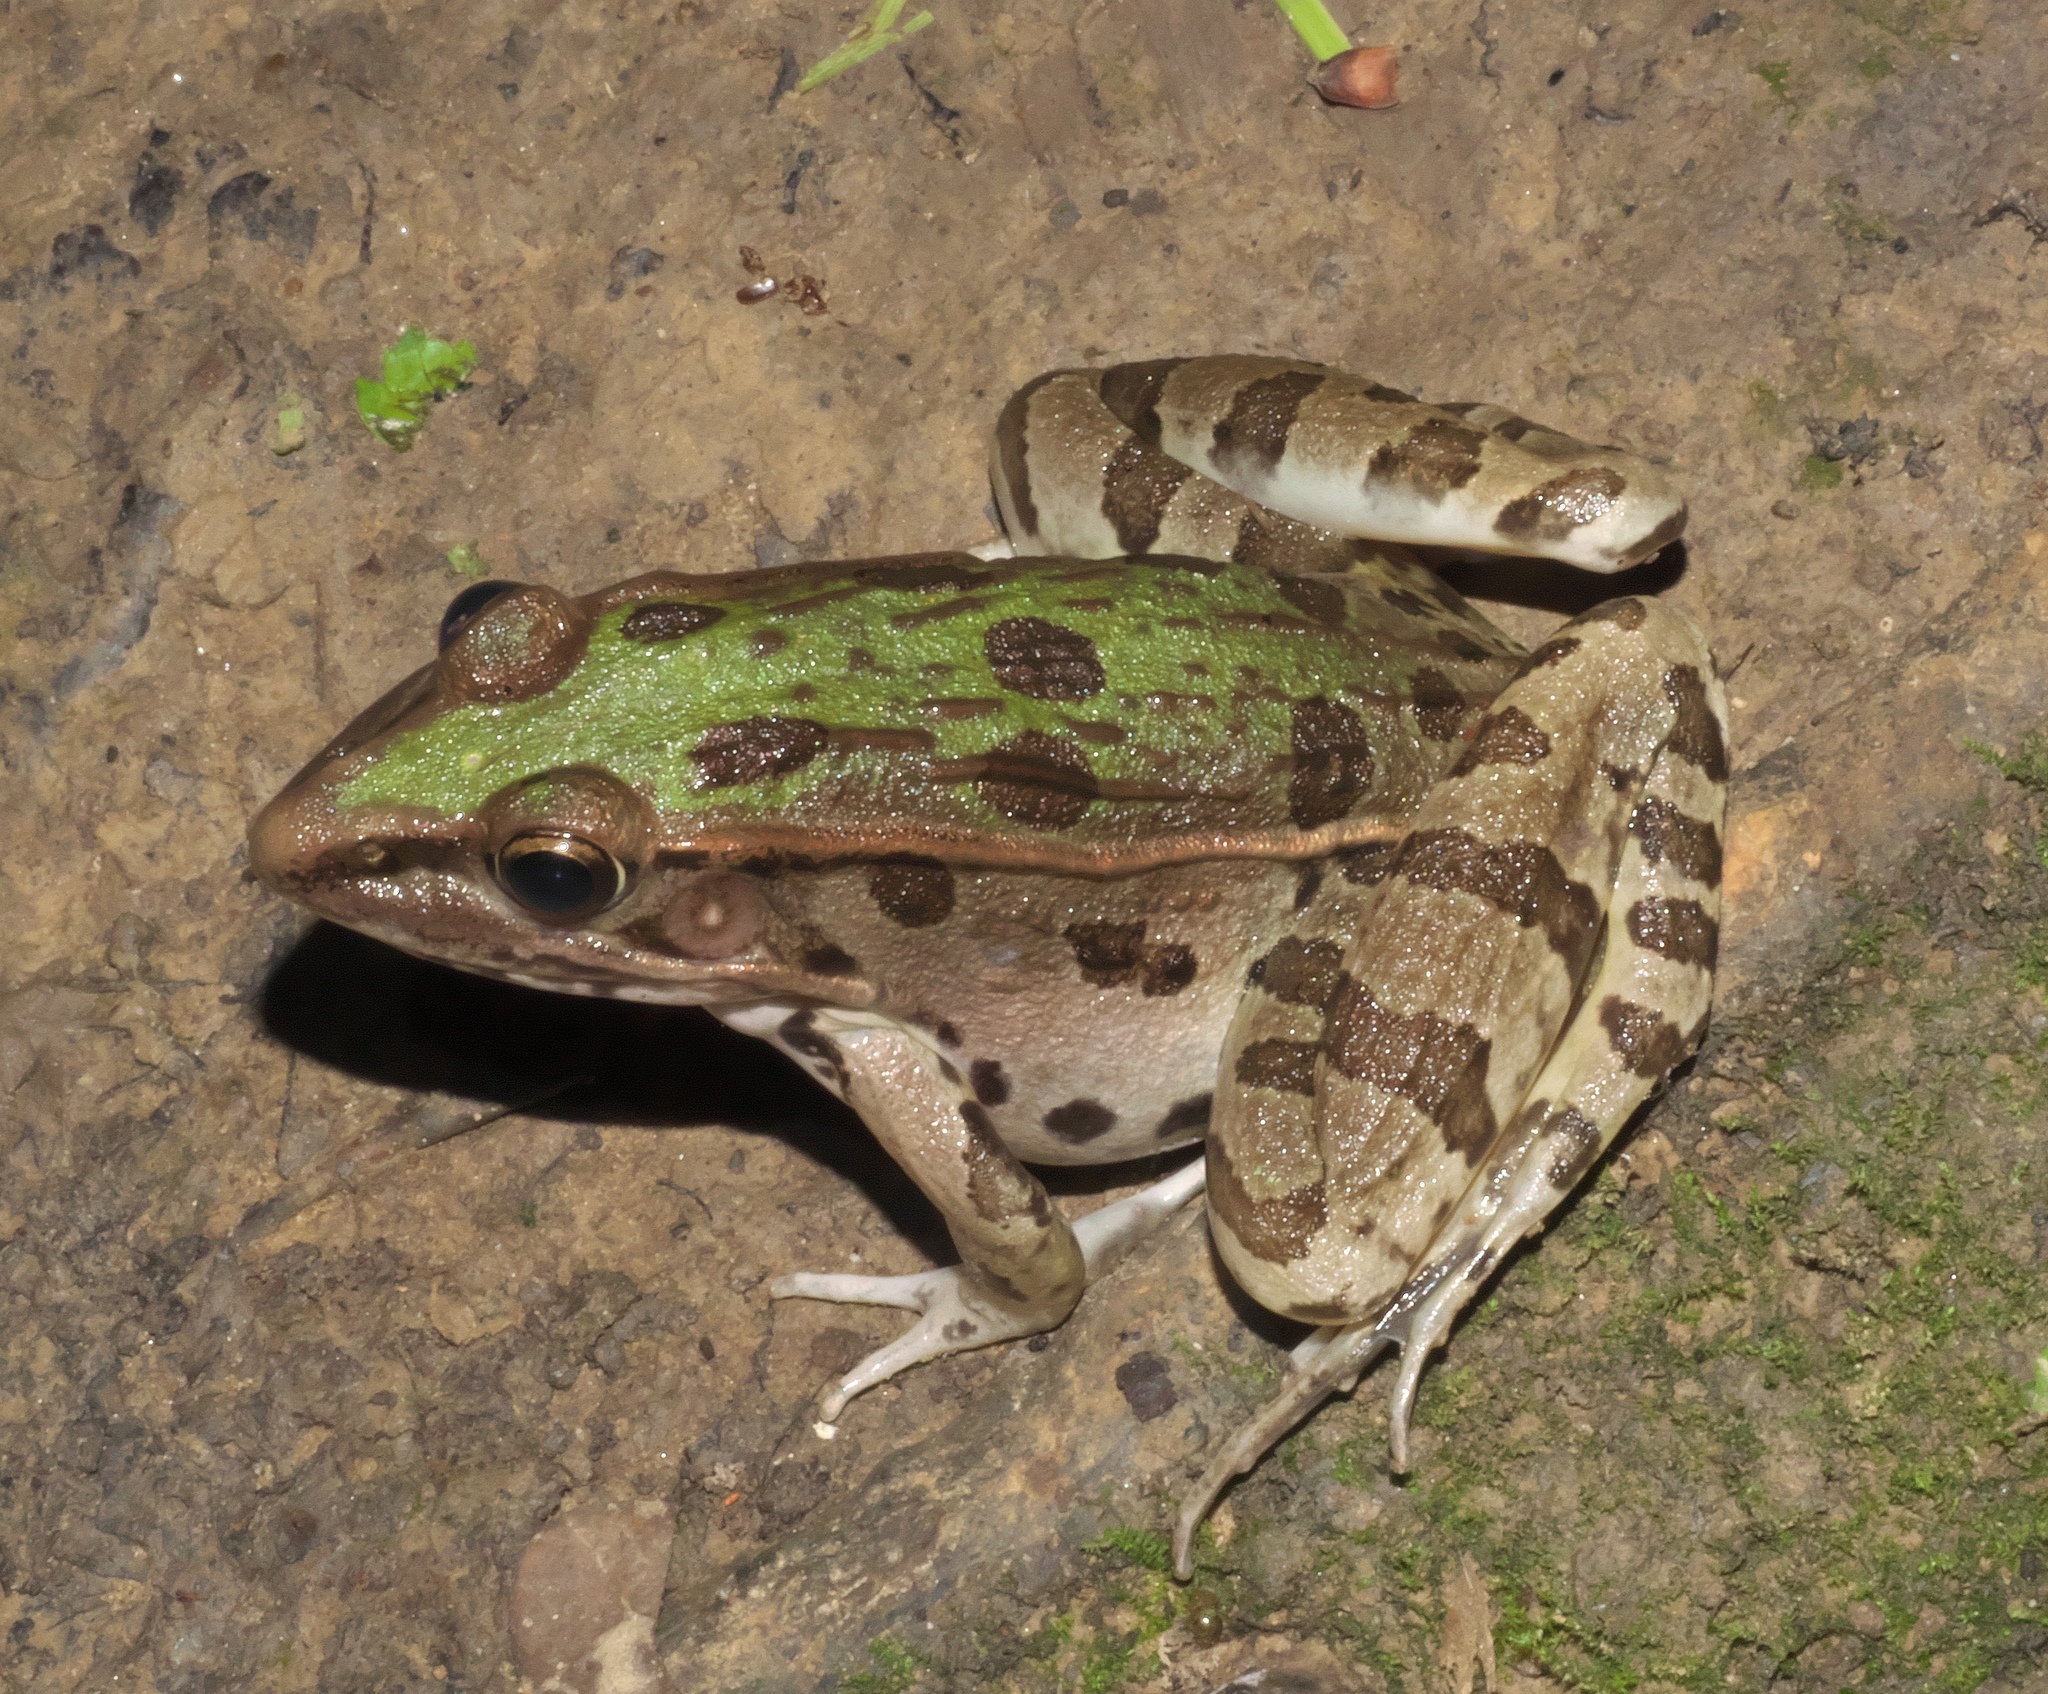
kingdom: Animalia
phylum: Chordata
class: Amphibia
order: Anura
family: Ranidae
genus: Lithobates
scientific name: Lithobates sphenocephalus
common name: Southern leopard frog
